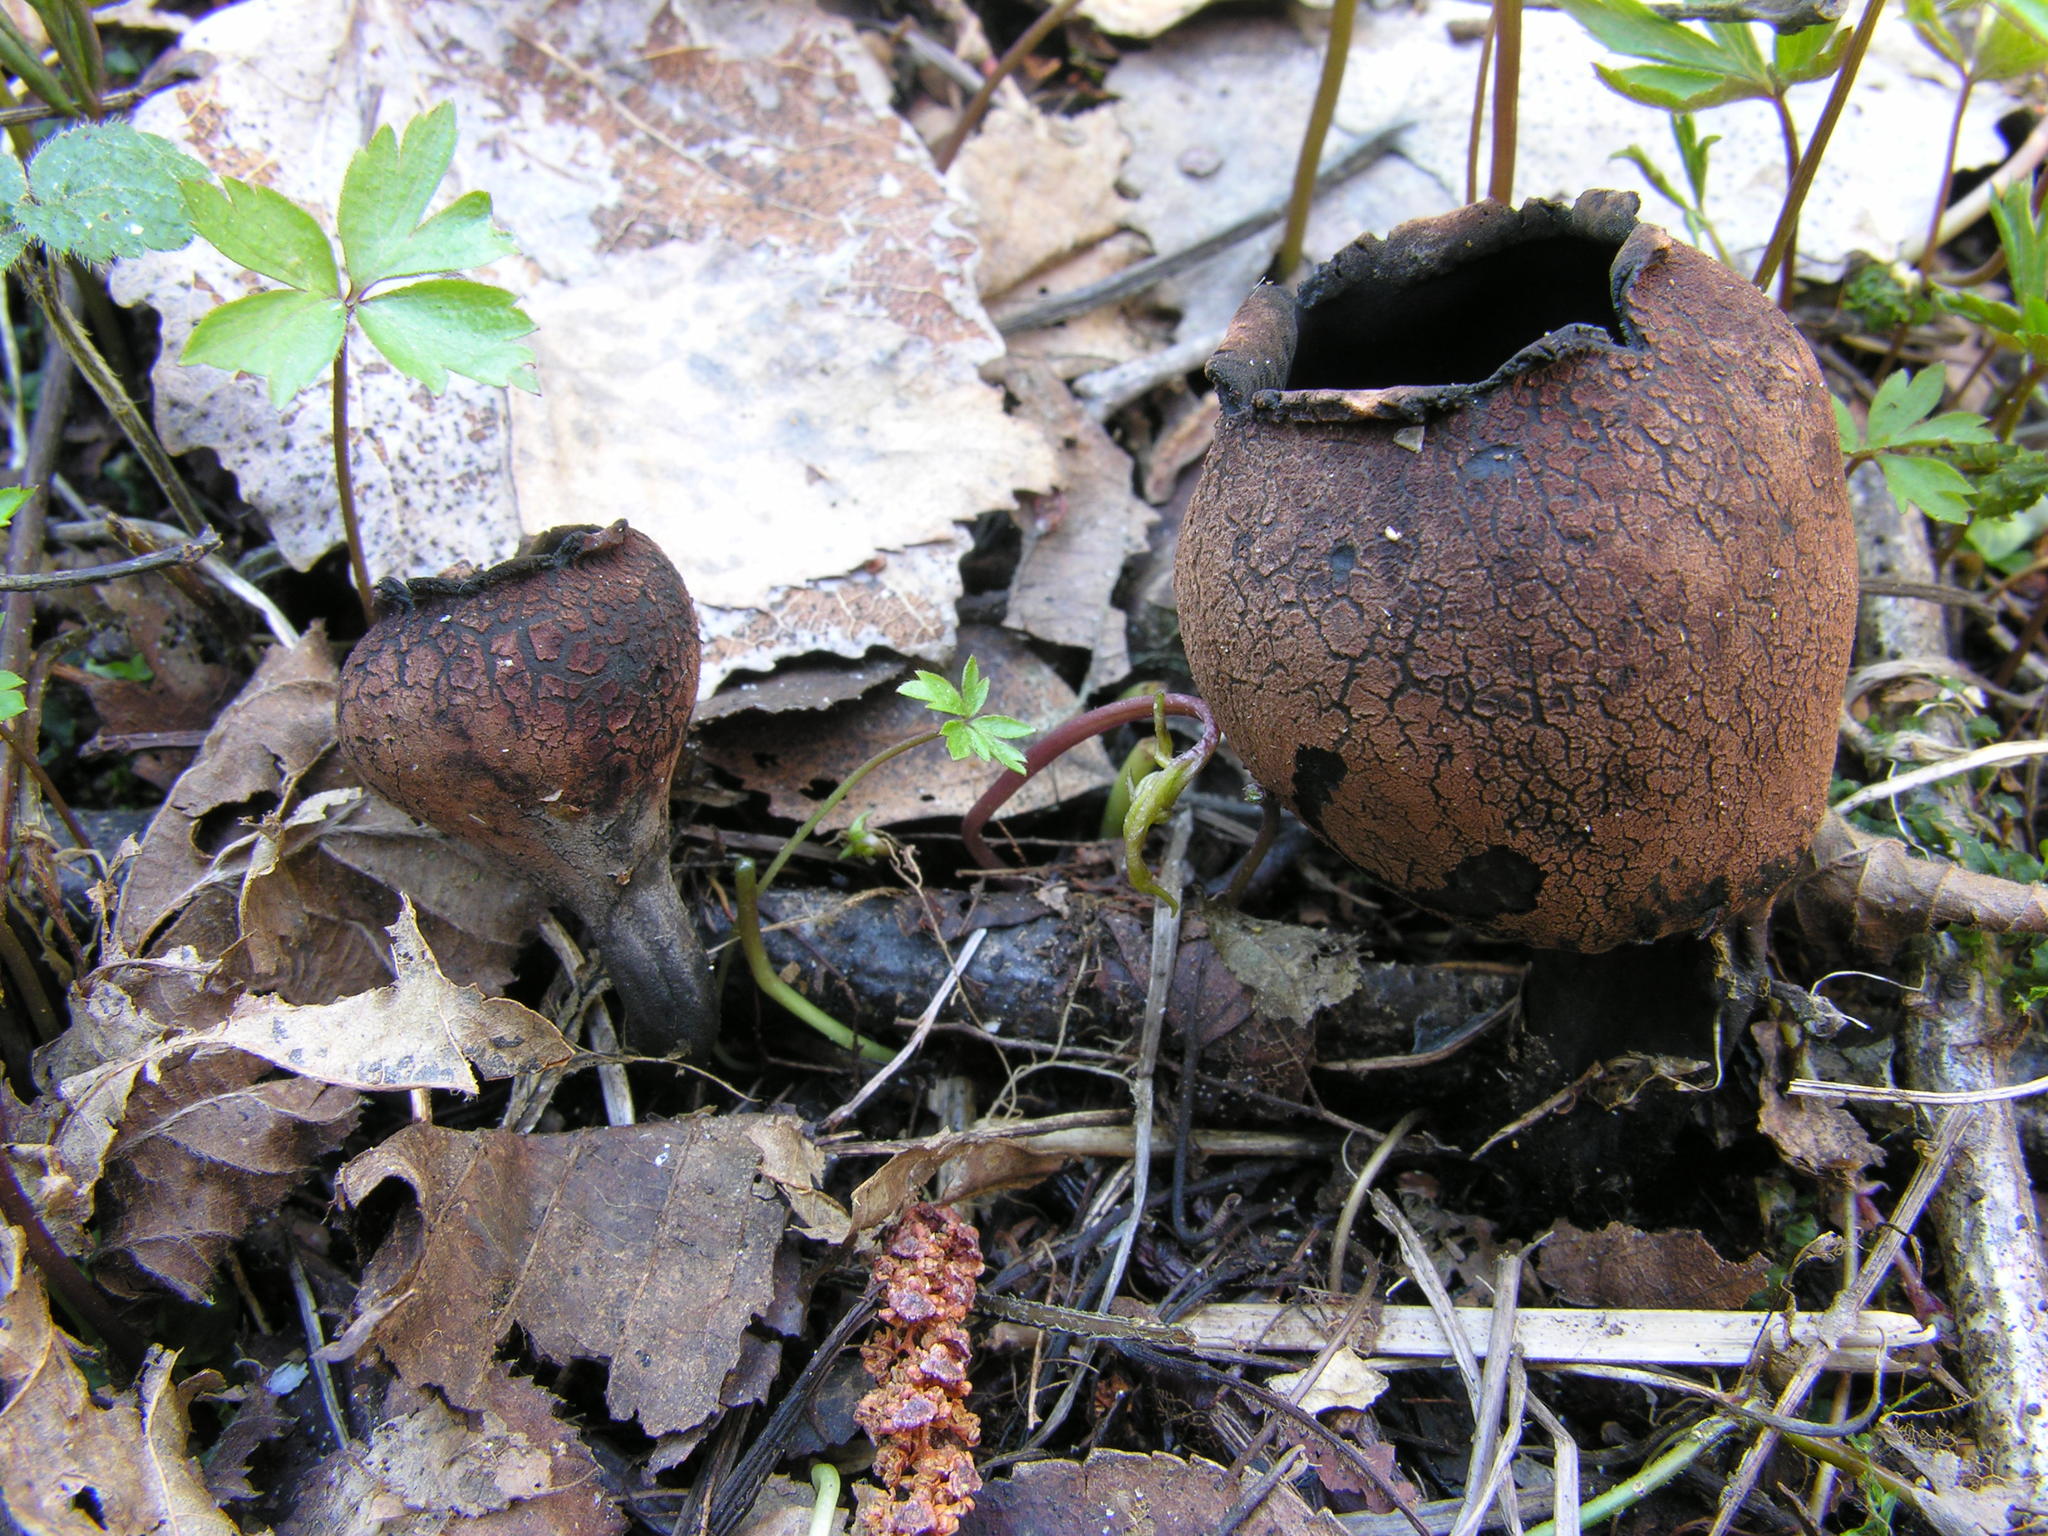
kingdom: Fungi
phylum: Ascomycota
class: Pezizomycetes
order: Pezizales
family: Sarcosomataceae
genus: Urnula
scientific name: Urnula craterium
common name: Devil's urn
